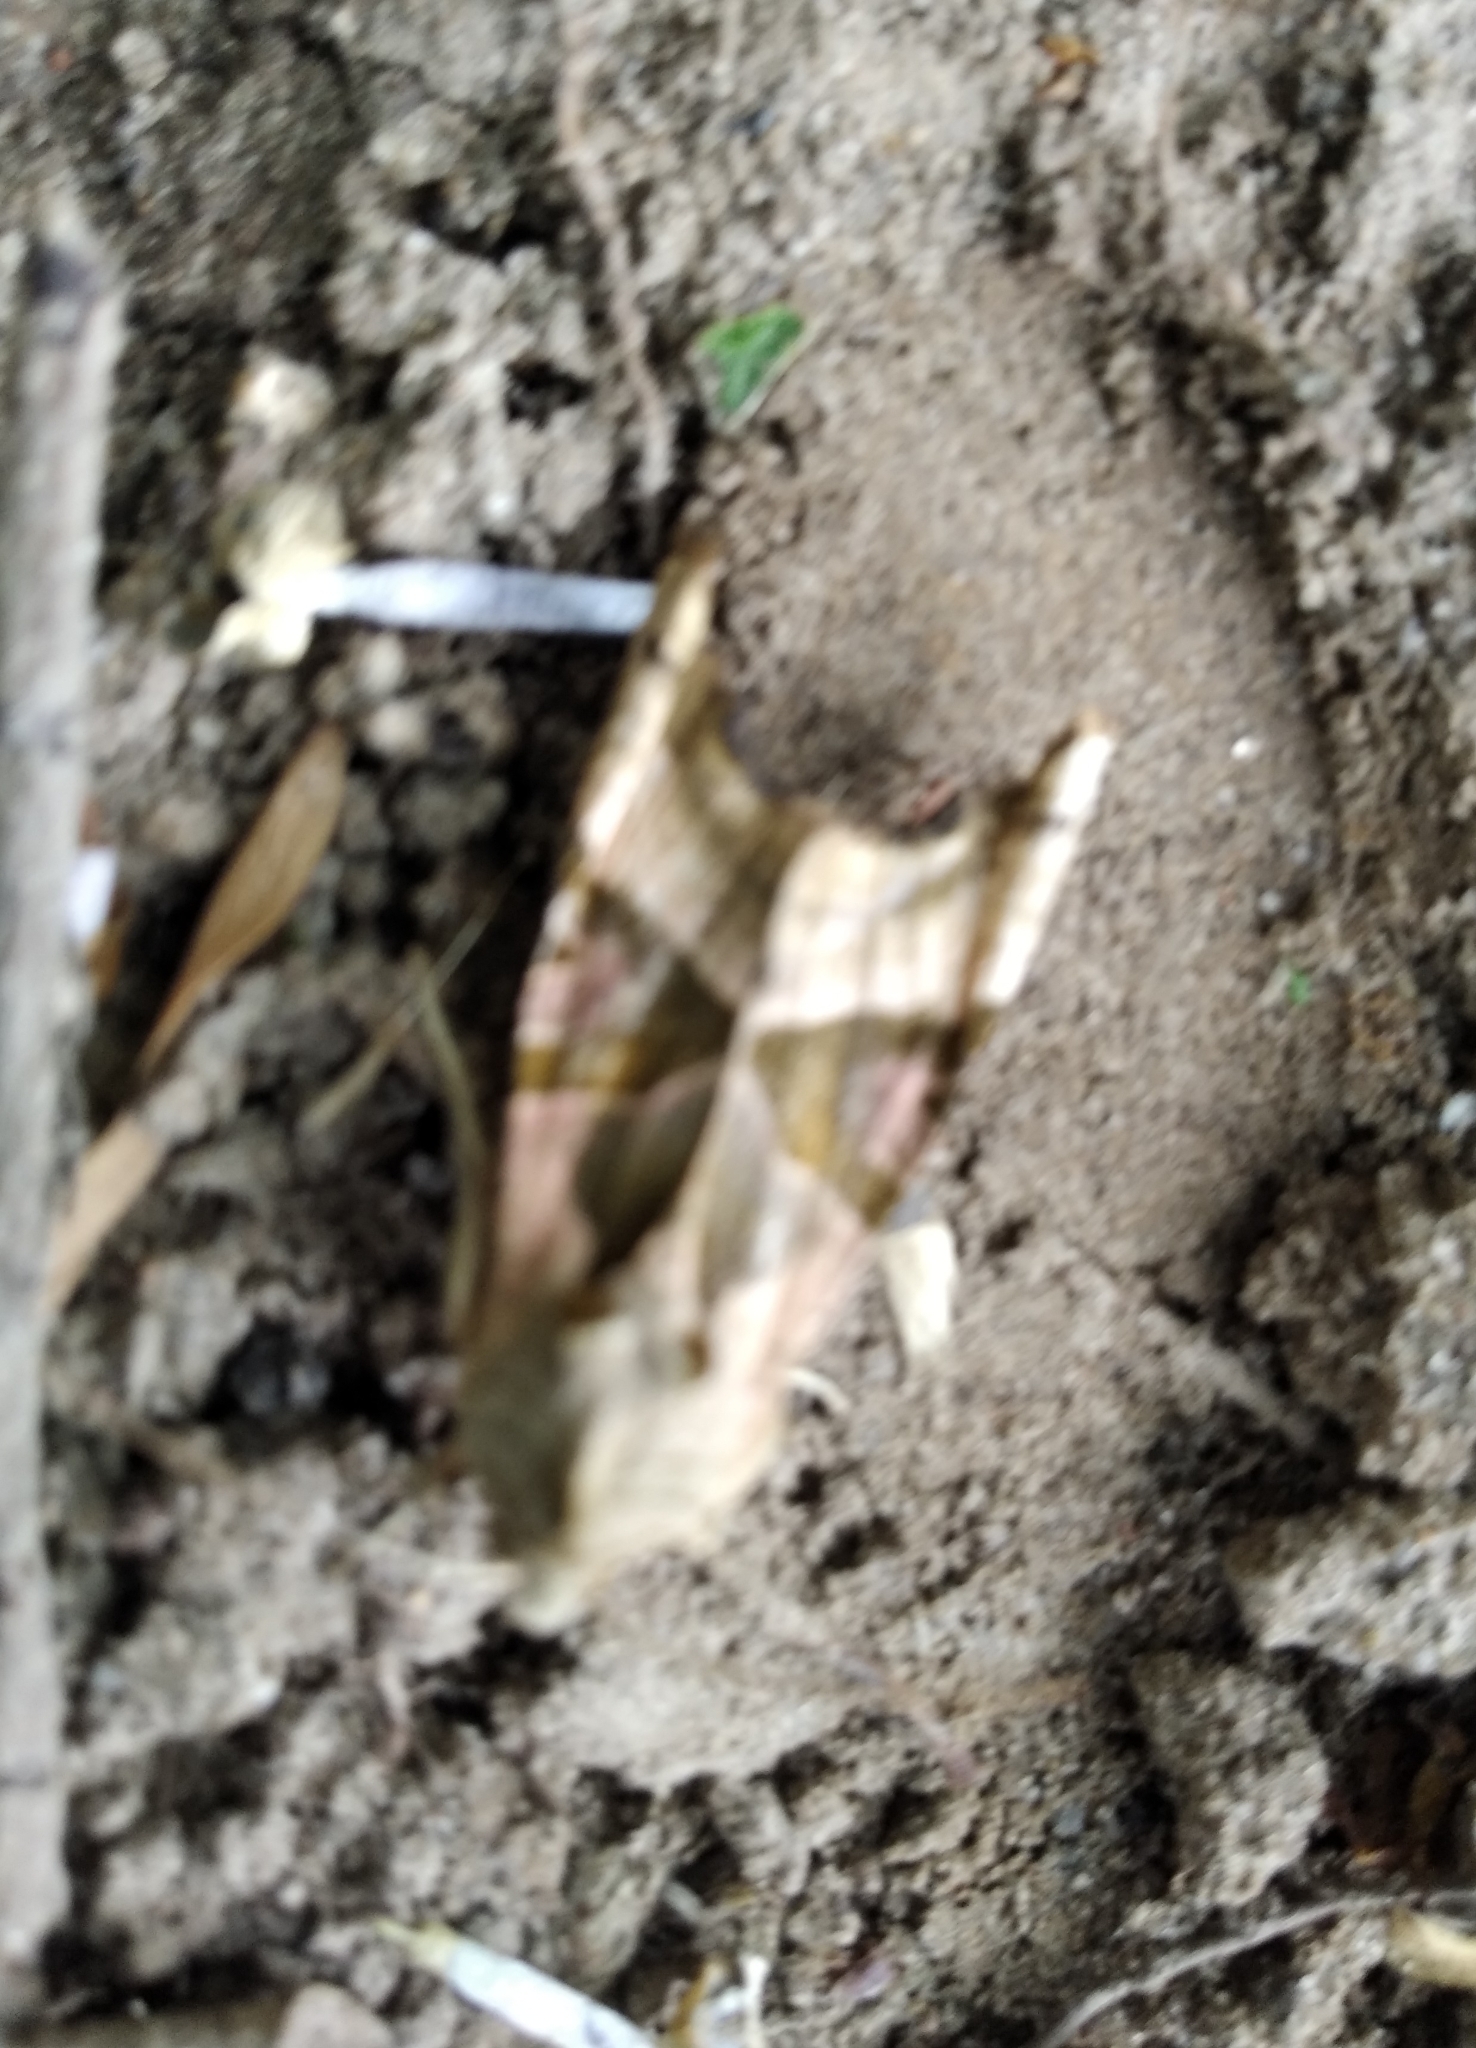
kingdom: Animalia
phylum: Arthropoda
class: Insecta
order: Lepidoptera
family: Noctuidae
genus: Phlogophora
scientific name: Phlogophora meticulosa
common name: Angle shades
